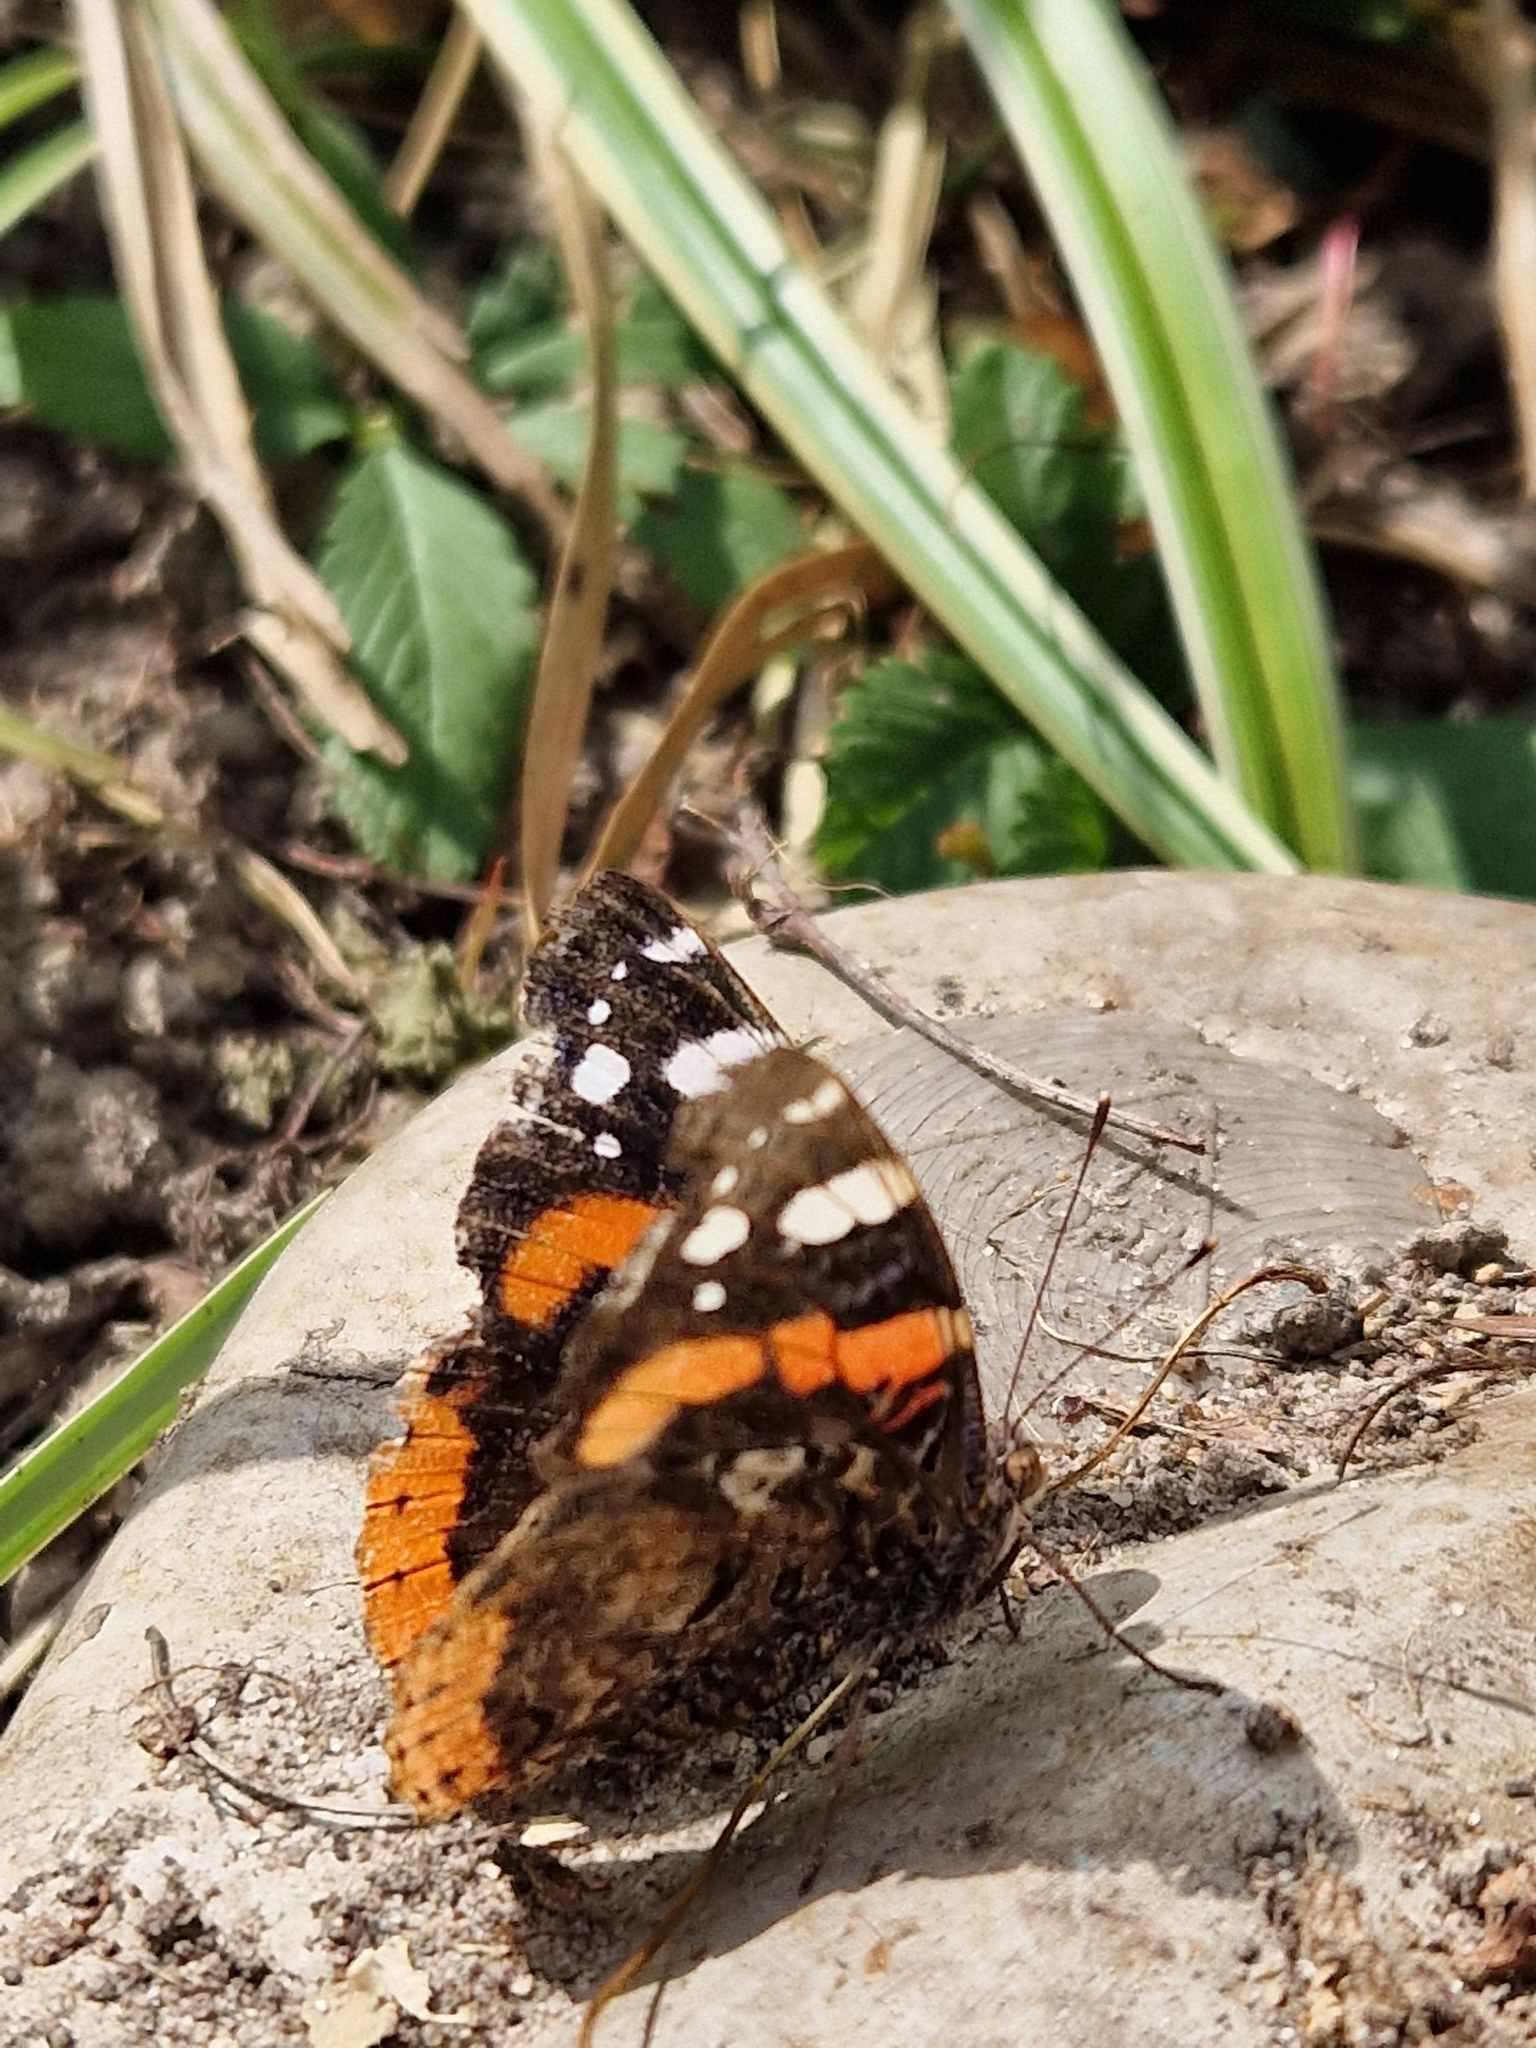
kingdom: Animalia
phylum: Arthropoda
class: Insecta
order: Lepidoptera
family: Nymphalidae
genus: Vanessa
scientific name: Vanessa atalanta
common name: Red admiral
